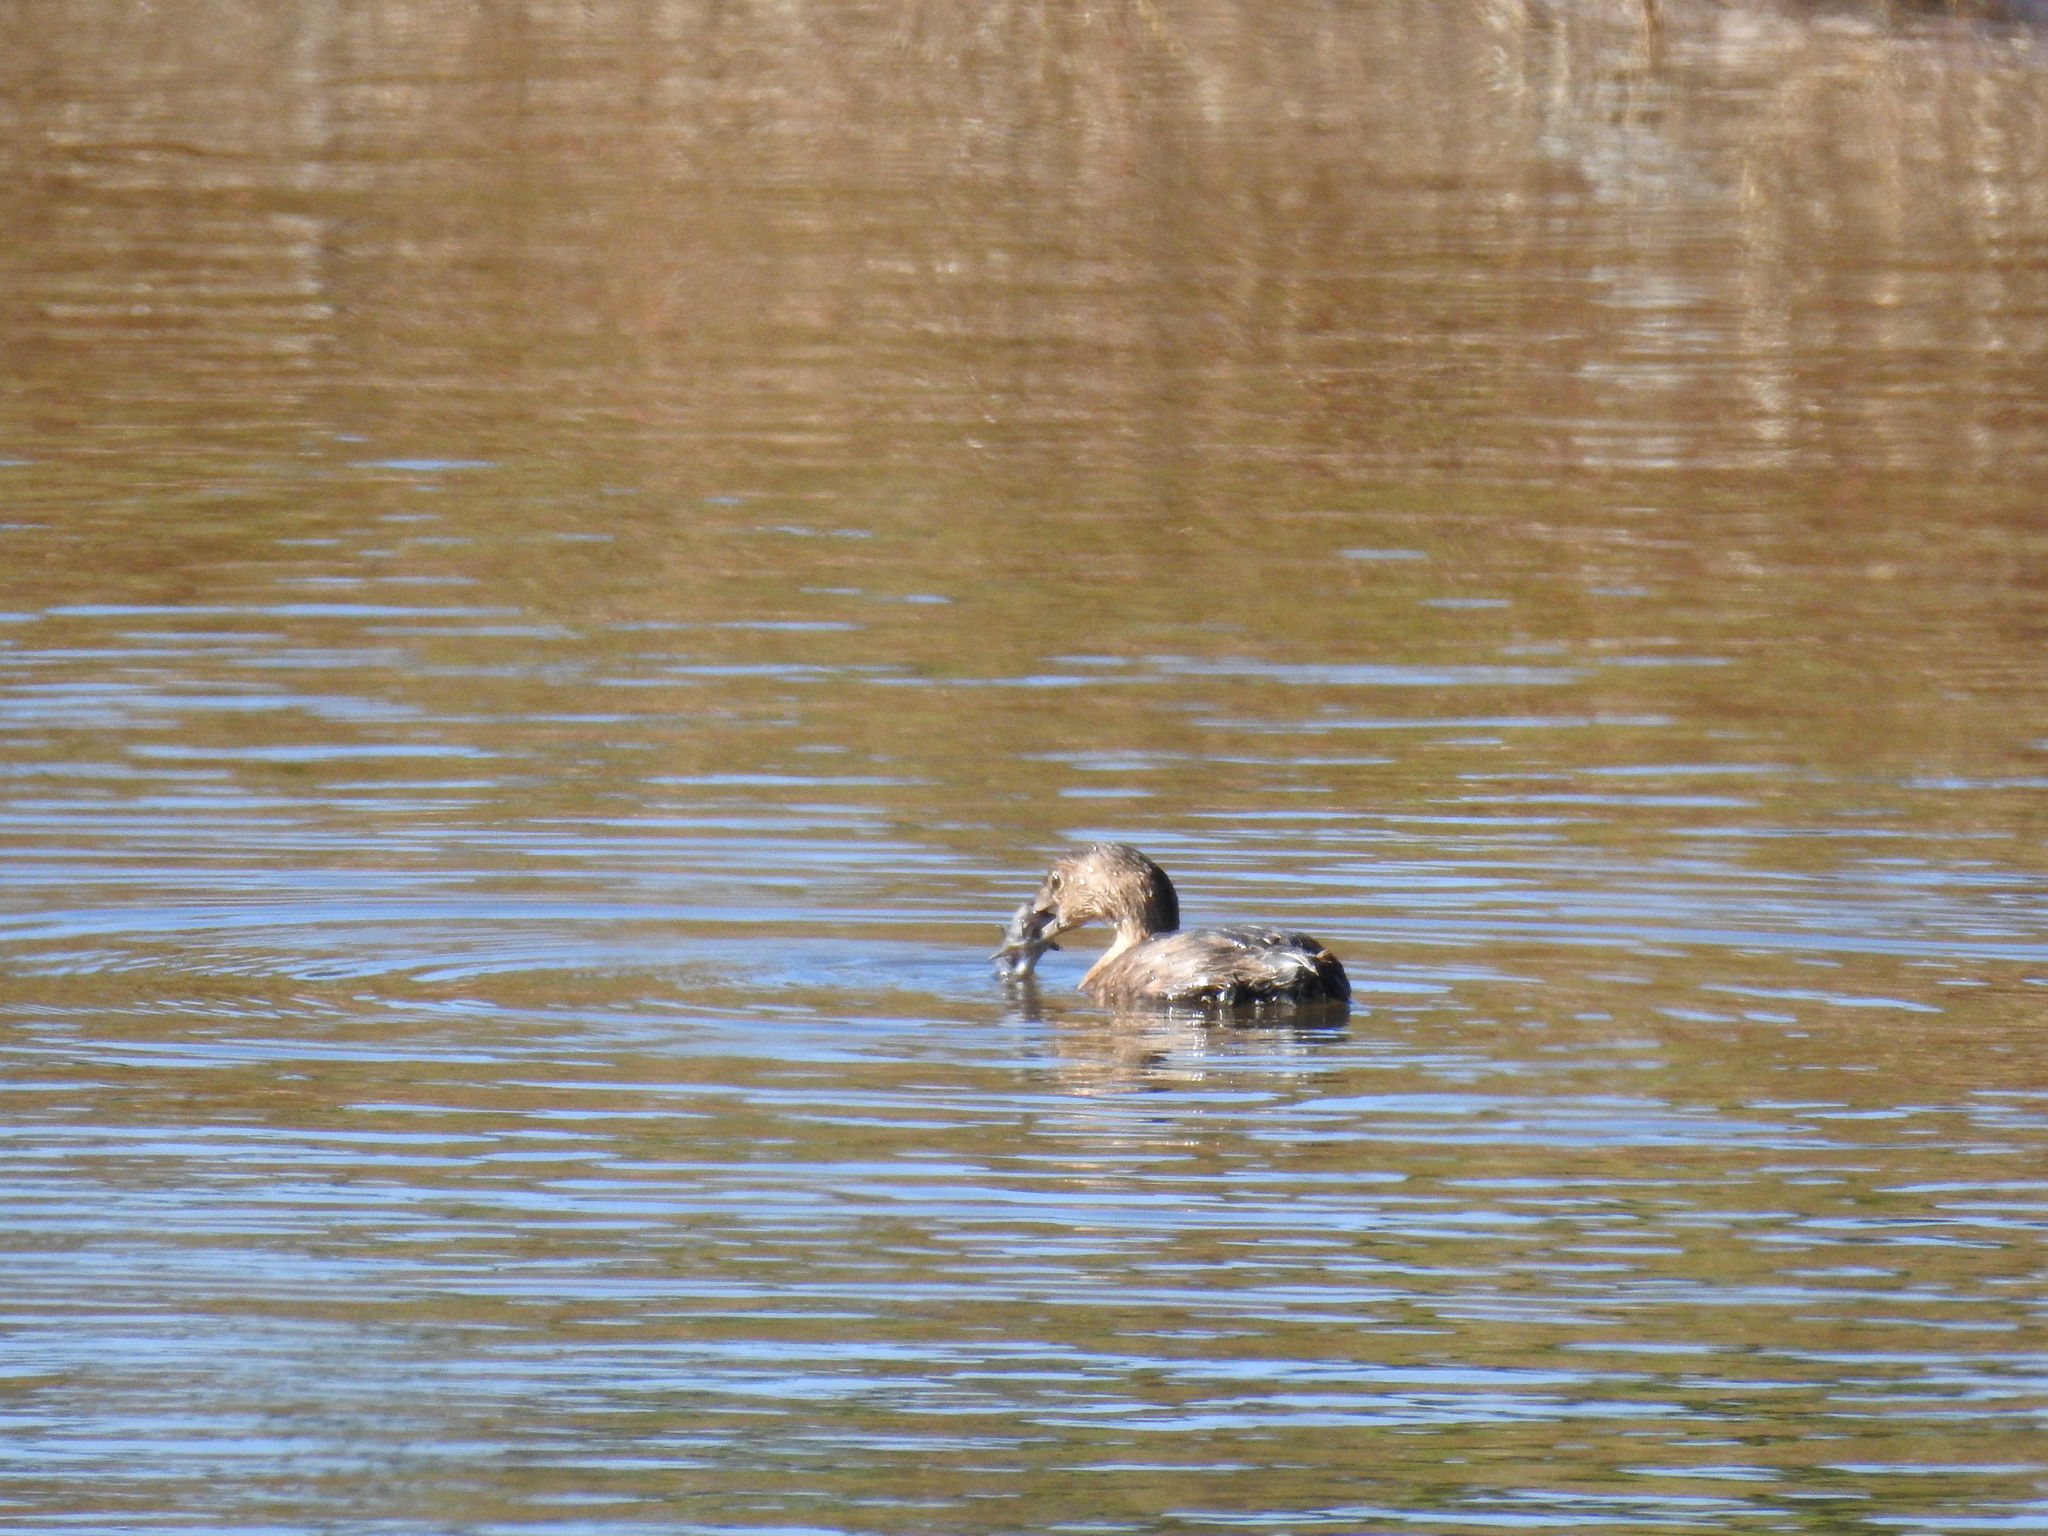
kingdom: Animalia
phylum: Chordata
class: Aves
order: Podicipediformes
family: Podicipedidae
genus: Podilymbus
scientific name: Podilymbus podiceps
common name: Pied-billed grebe
